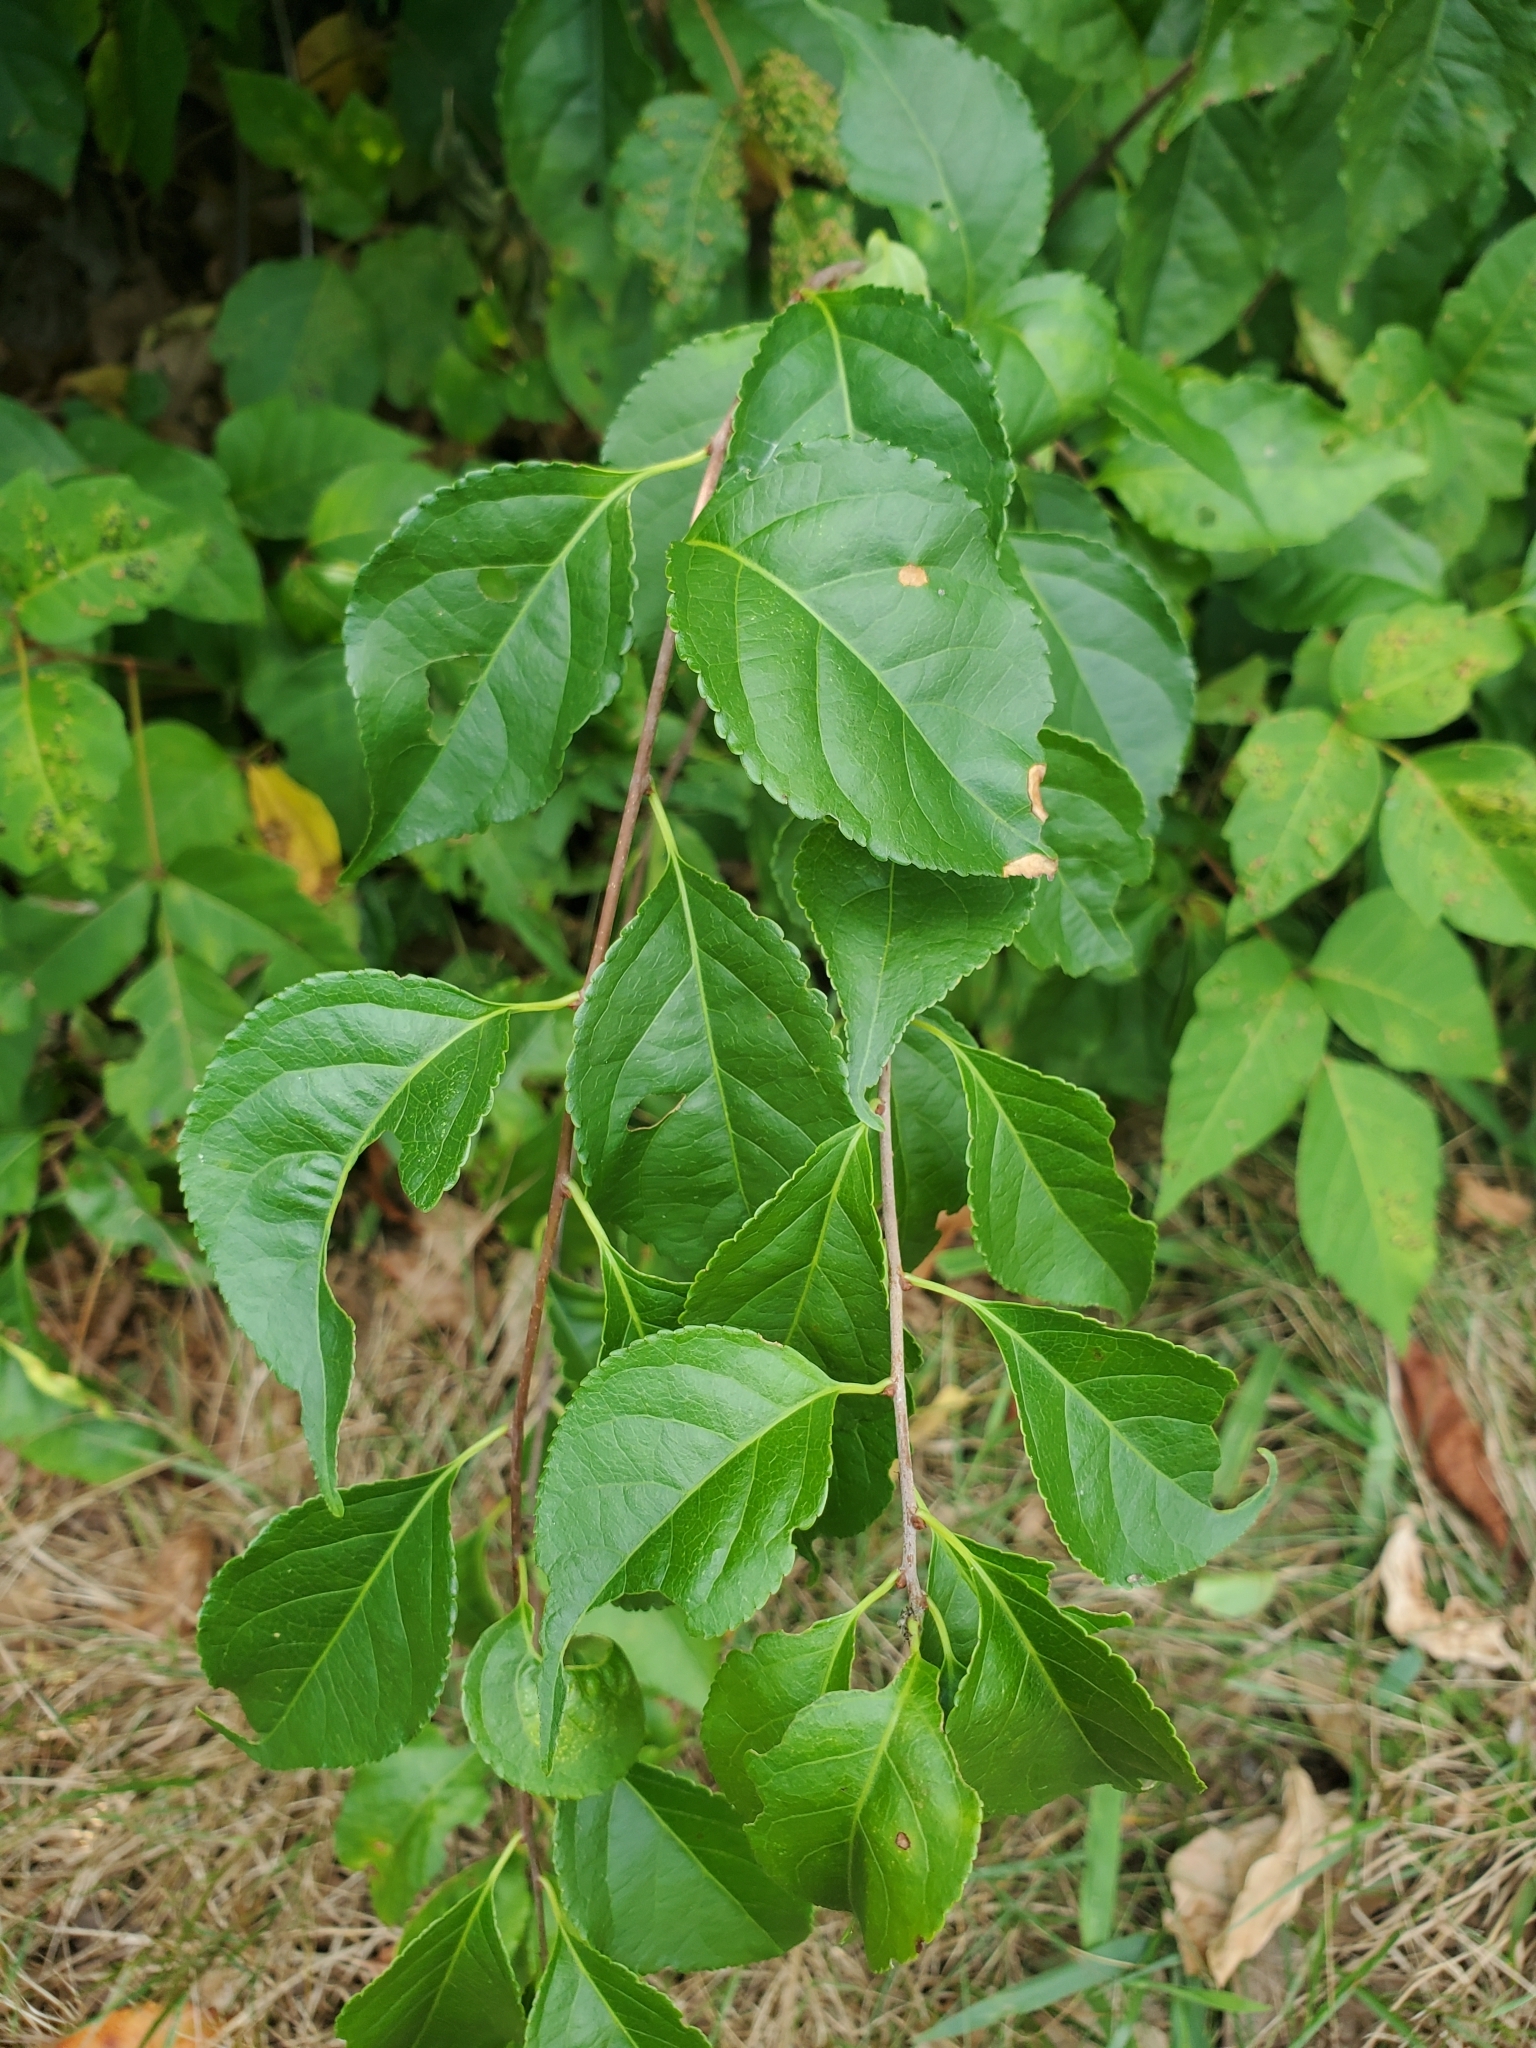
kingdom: Plantae
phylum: Tracheophyta
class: Magnoliopsida
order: Celastrales
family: Celastraceae
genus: Celastrus
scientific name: Celastrus orbiculatus
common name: Oriental bittersweet
